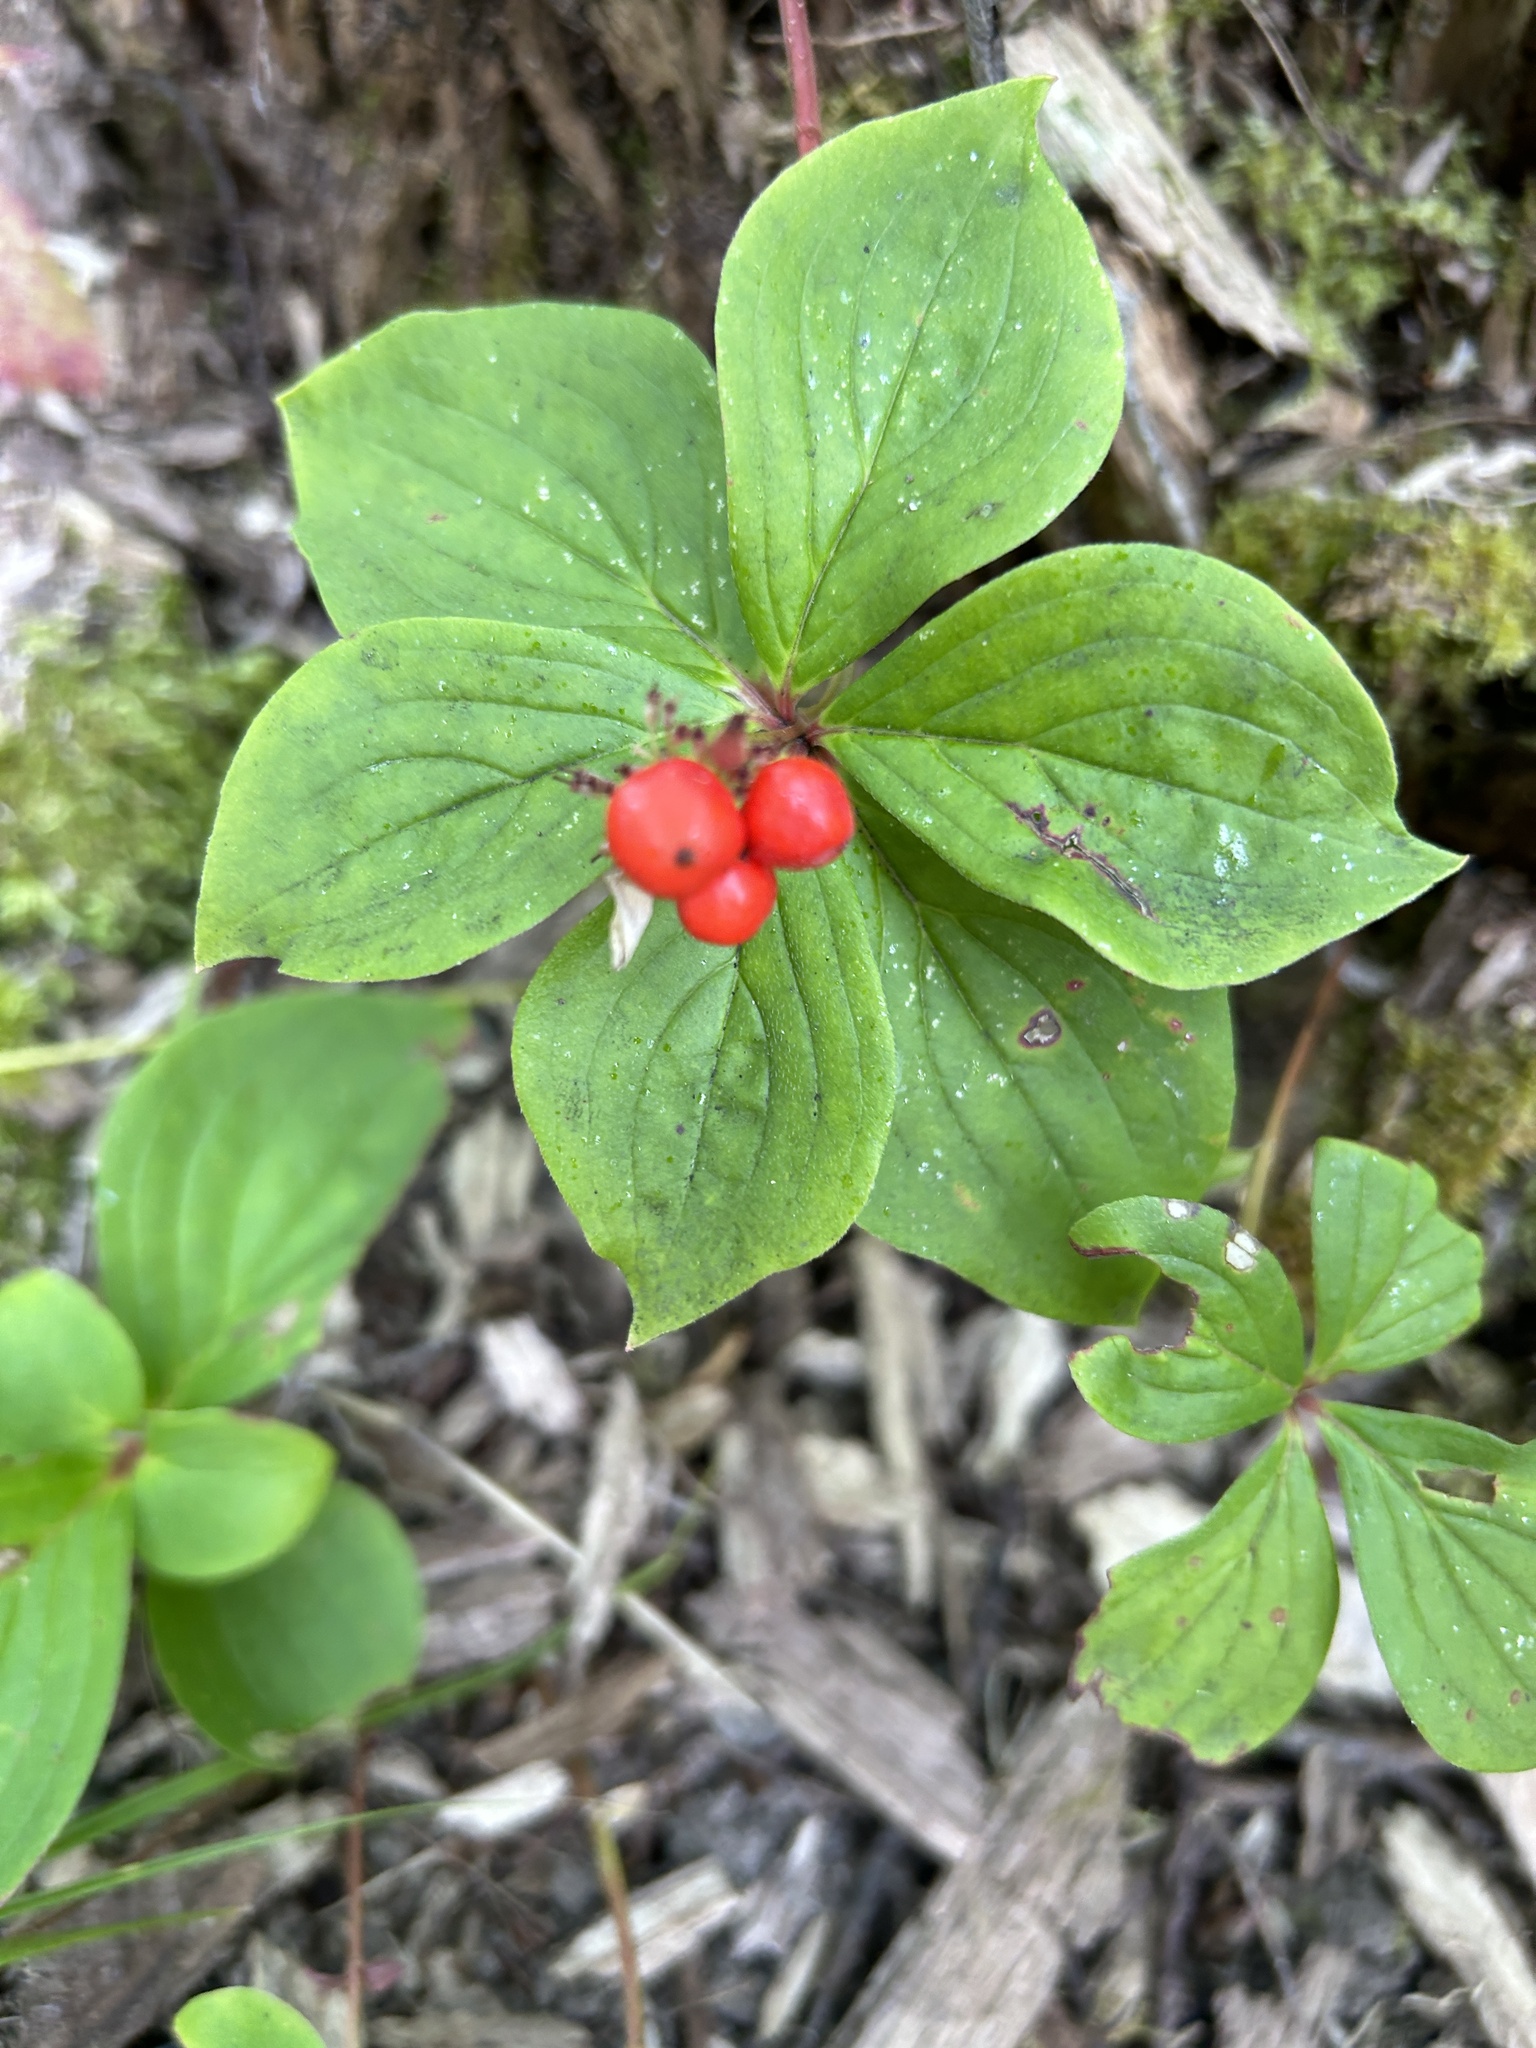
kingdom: Plantae
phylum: Tracheophyta
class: Magnoliopsida
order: Cornales
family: Cornaceae
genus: Cornus
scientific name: Cornus canadensis
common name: Creeping dogwood
